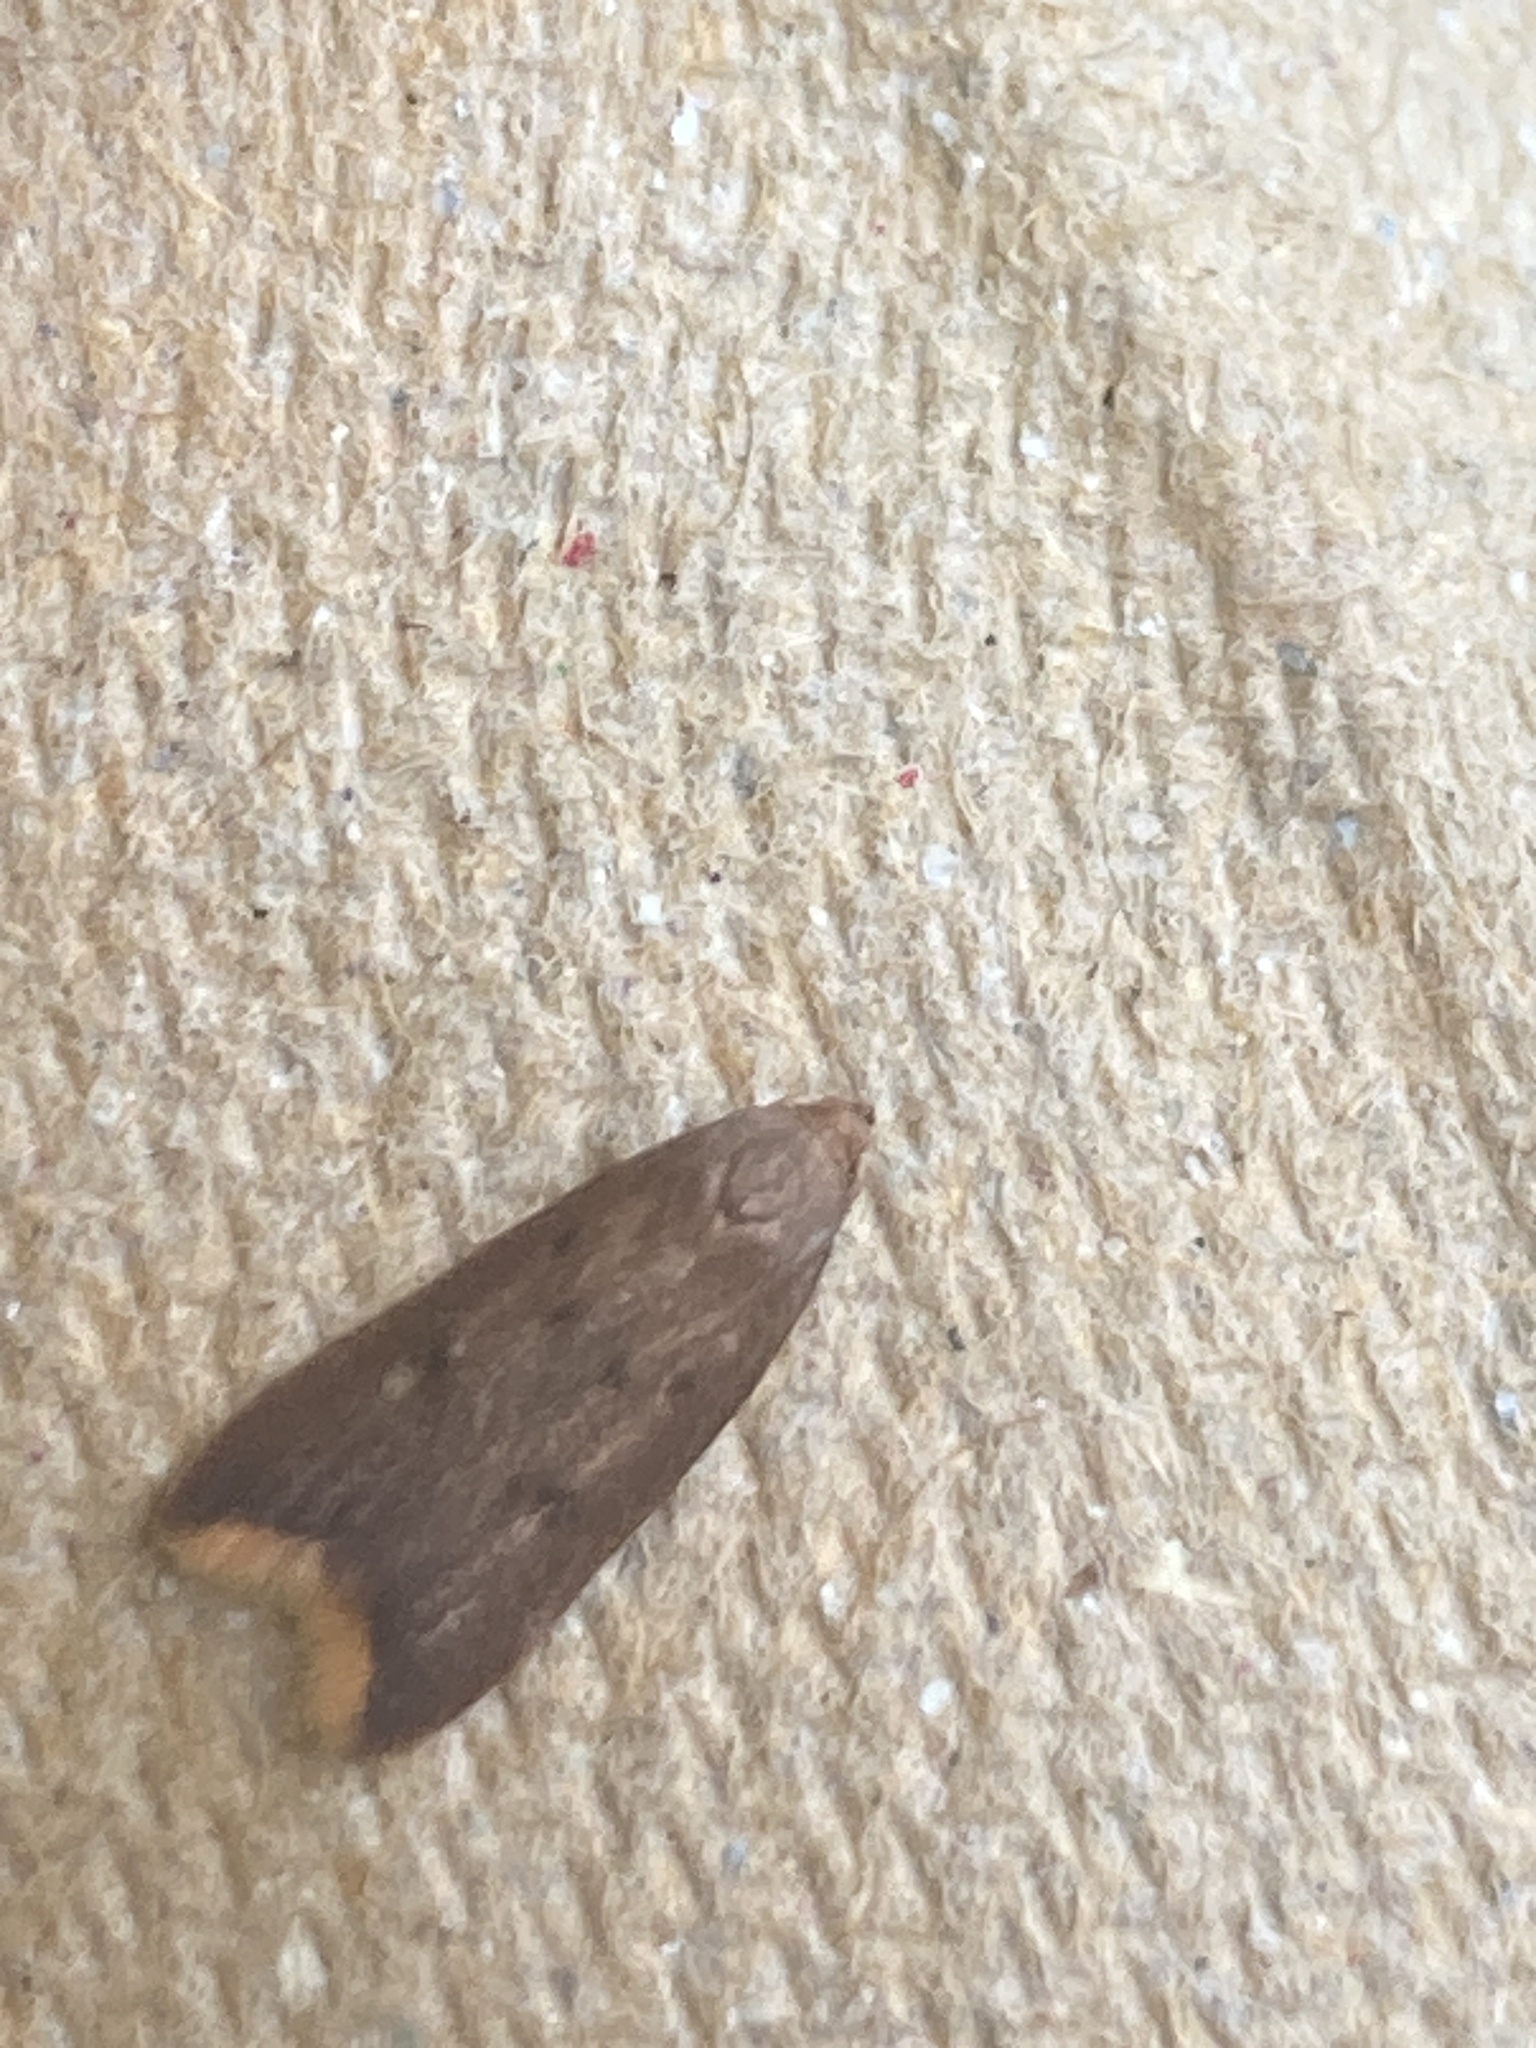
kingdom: Animalia
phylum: Arthropoda
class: Insecta
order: Lepidoptera
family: Oecophoridae
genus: Tachystola
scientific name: Tachystola acroxantha
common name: Ruddy streak
